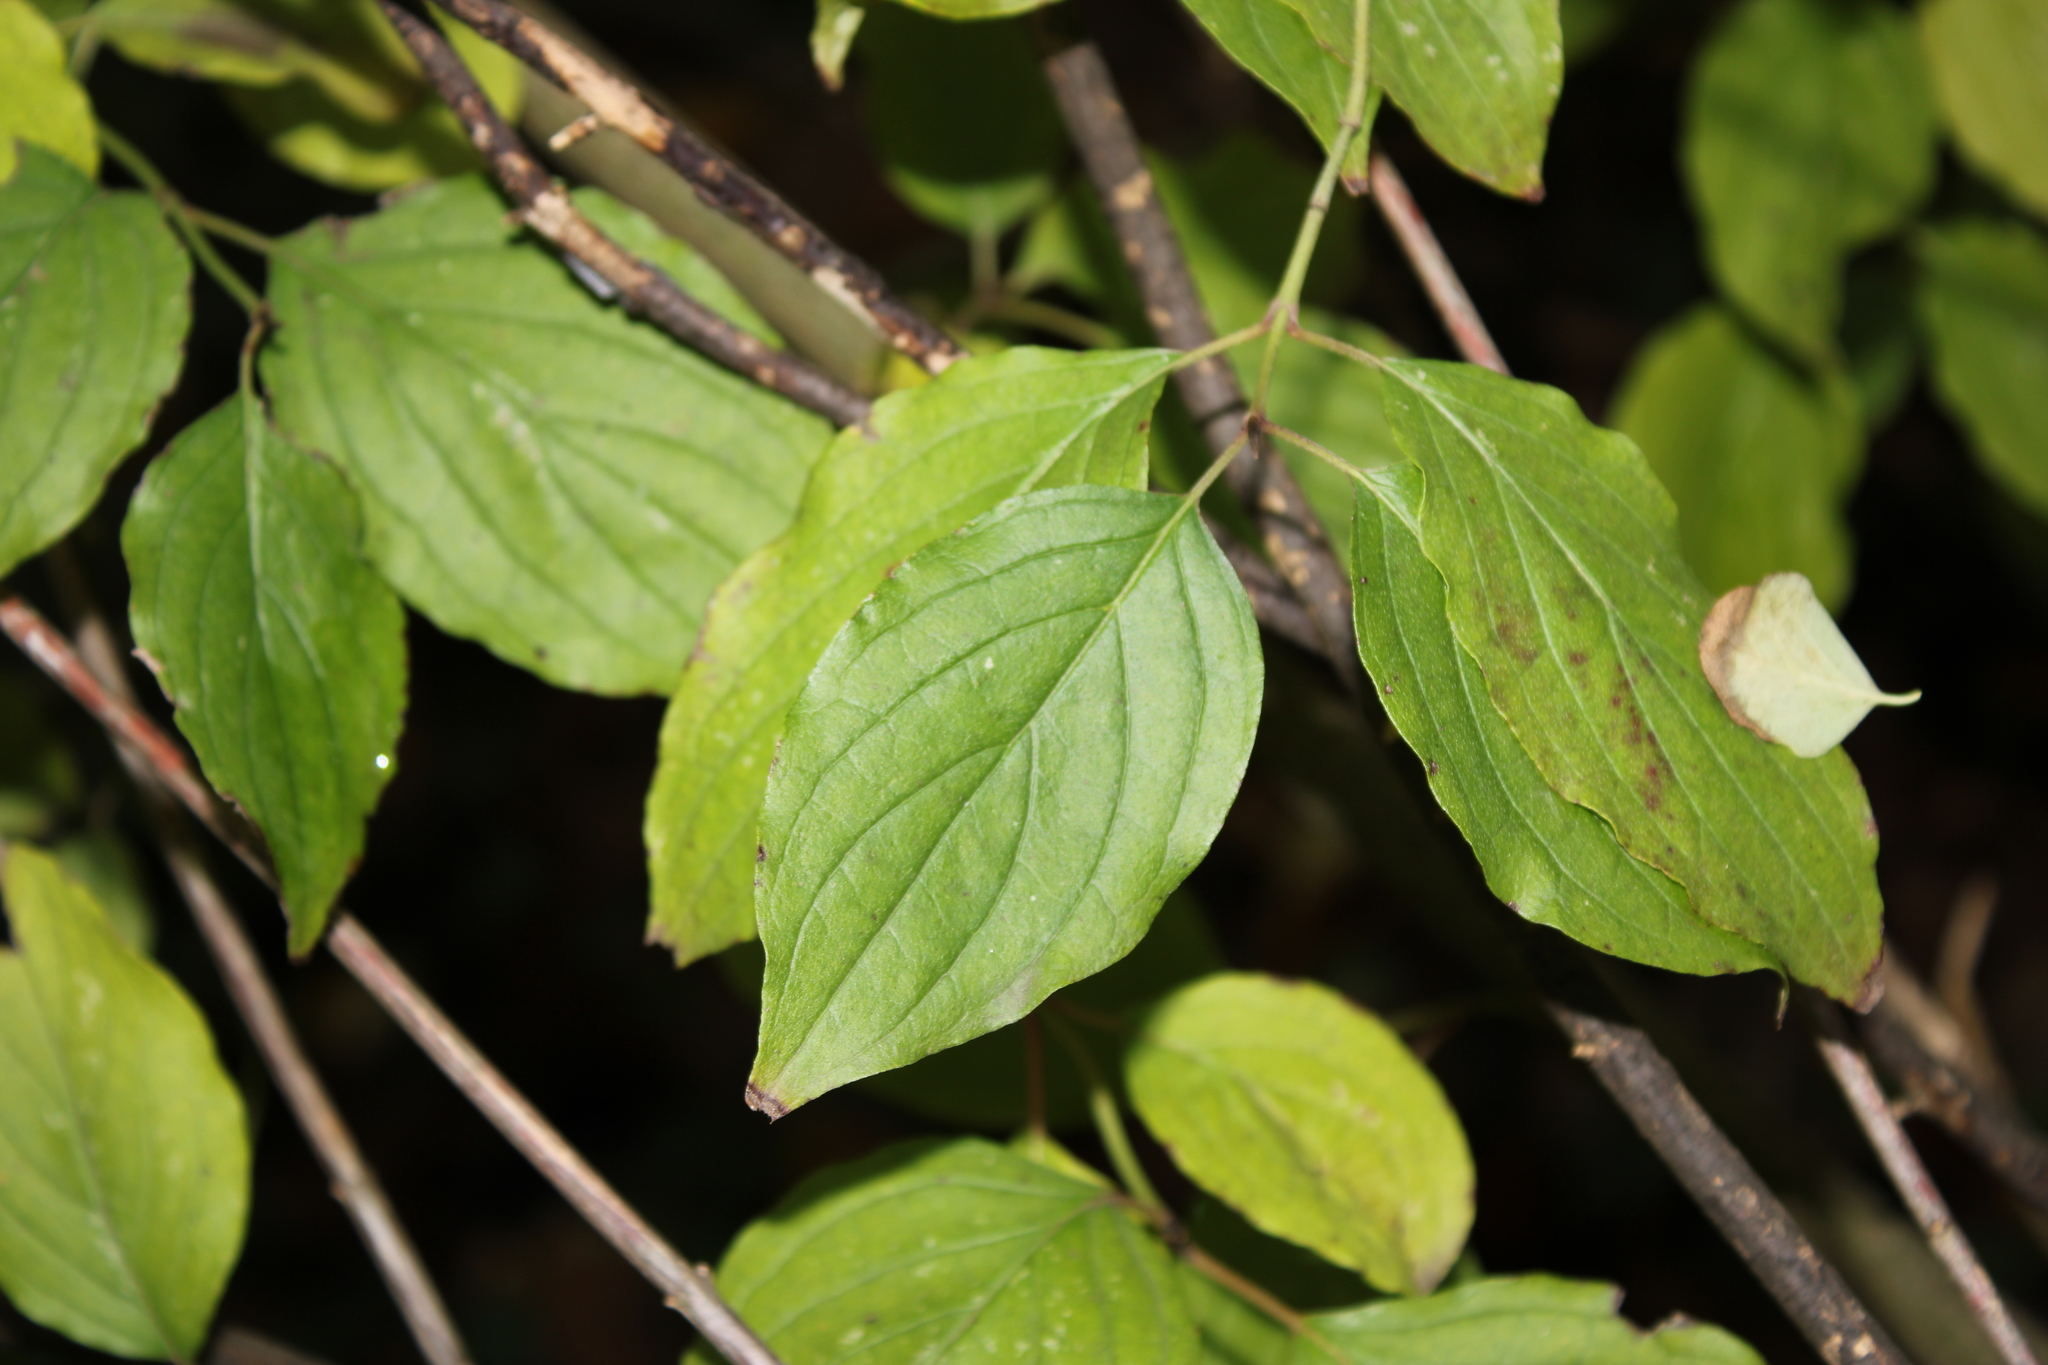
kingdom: Plantae
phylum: Tracheophyta
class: Magnoliopsida
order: Cornales
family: Cornaceae
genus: Cornus
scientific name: Cornus sanguinea
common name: Dogwood
